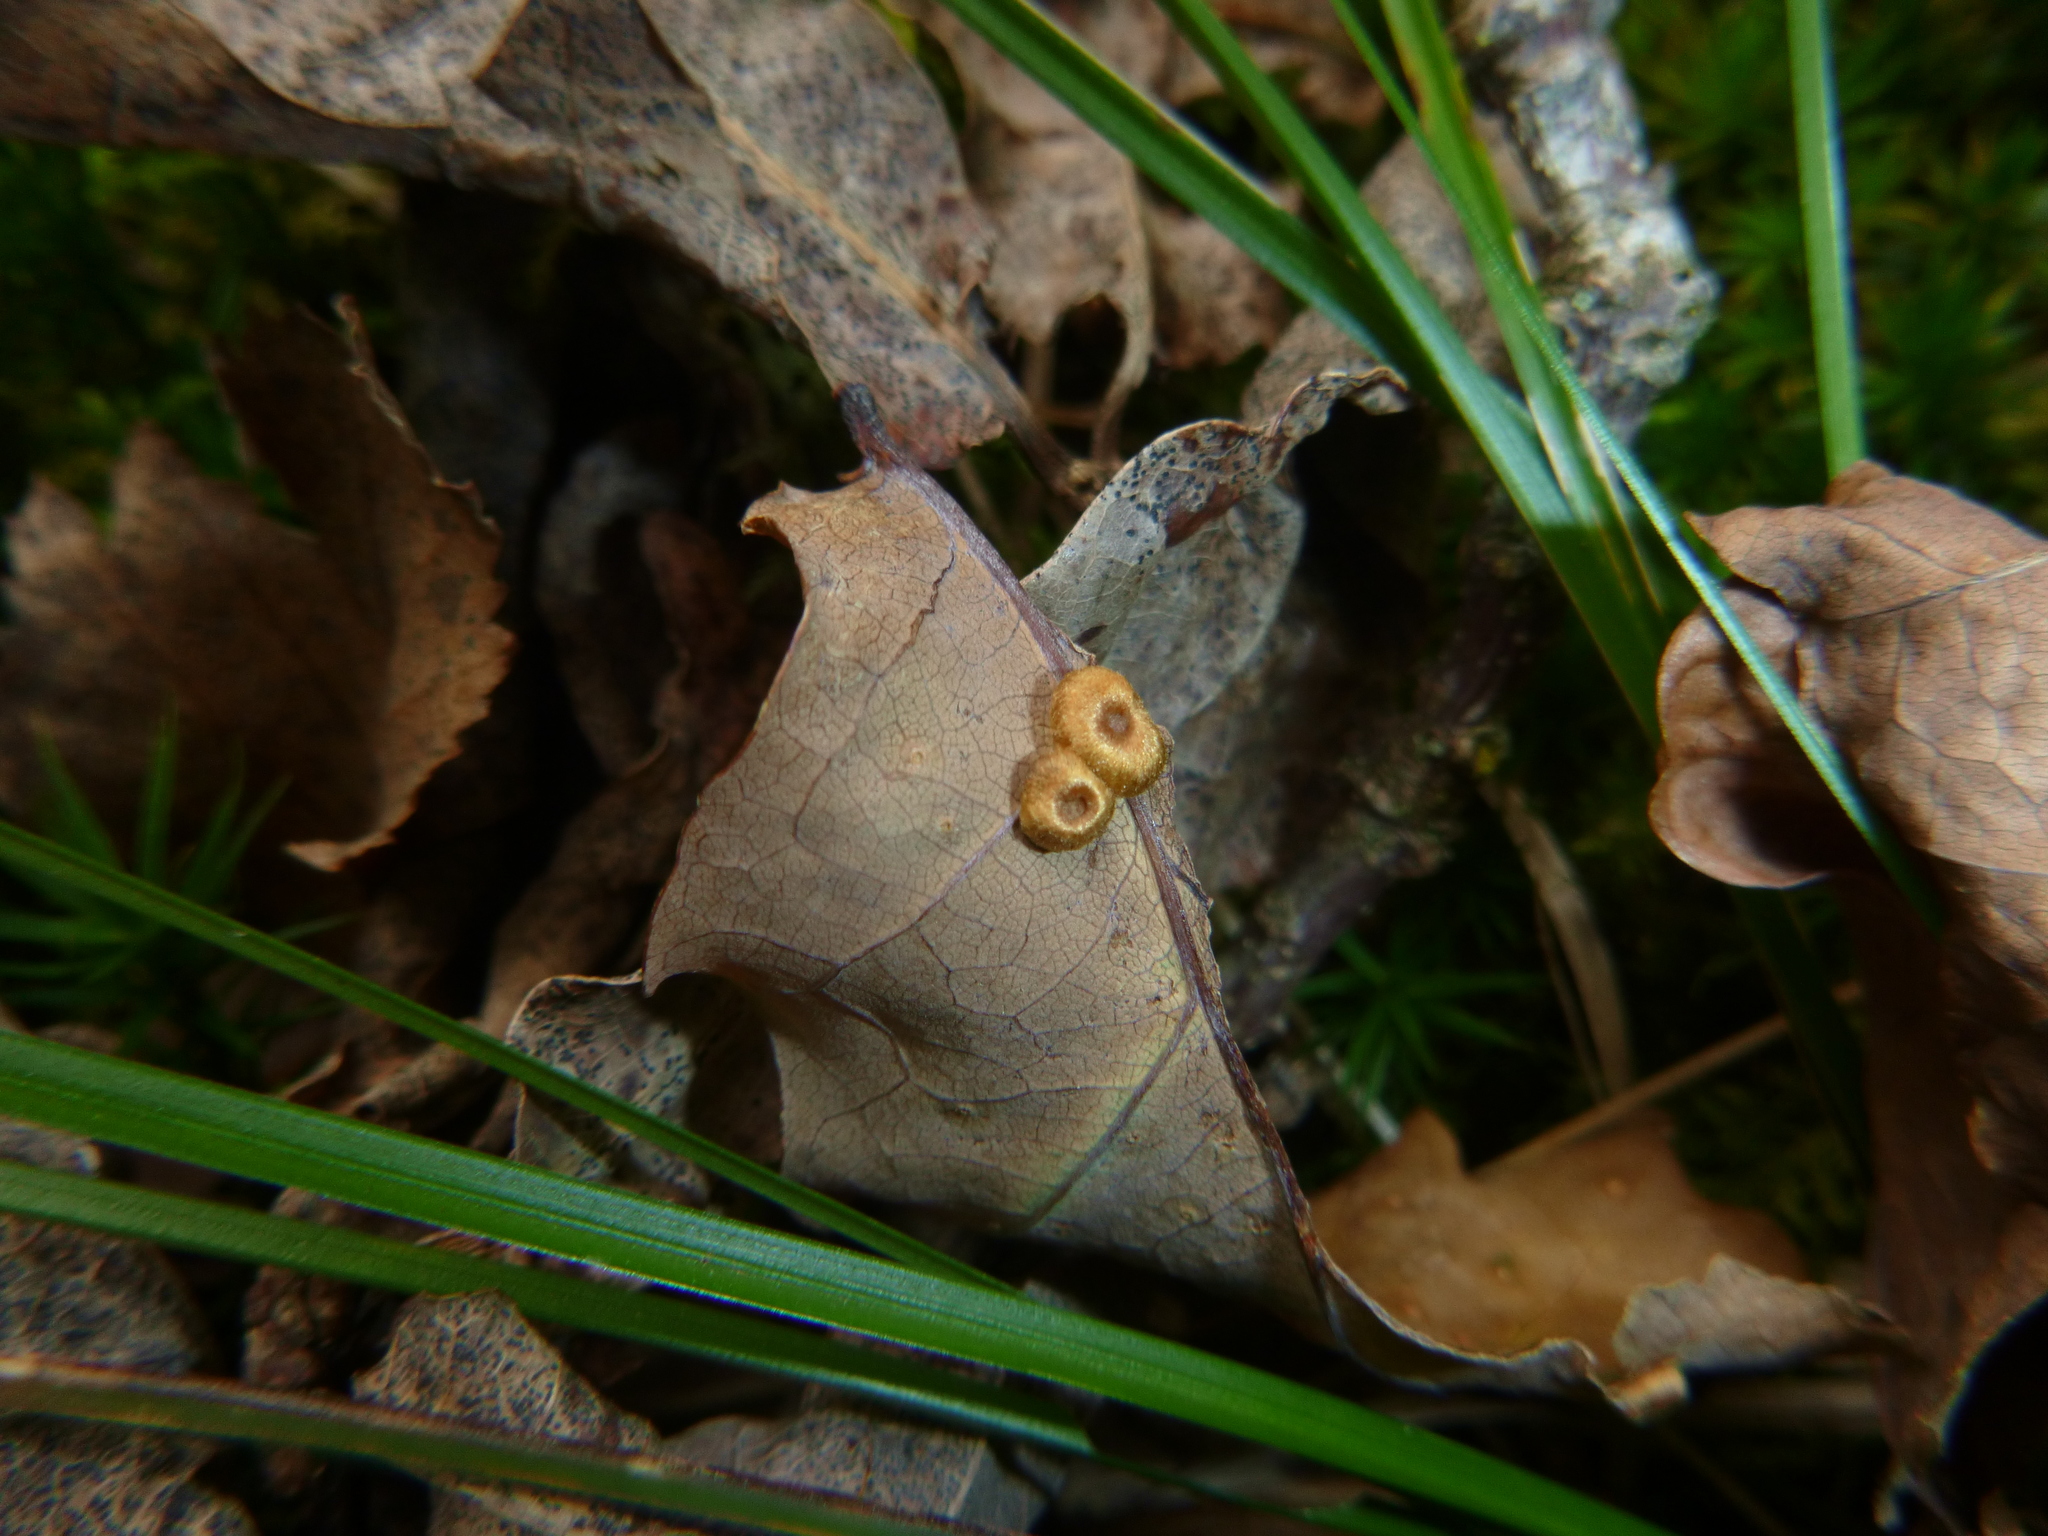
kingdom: Animalia
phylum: Arthropoda
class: Insecta
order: Hymenoptera
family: Cynipidae
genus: Neuroterus
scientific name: Neuroterus numismalis
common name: Silk-button spangle gall
